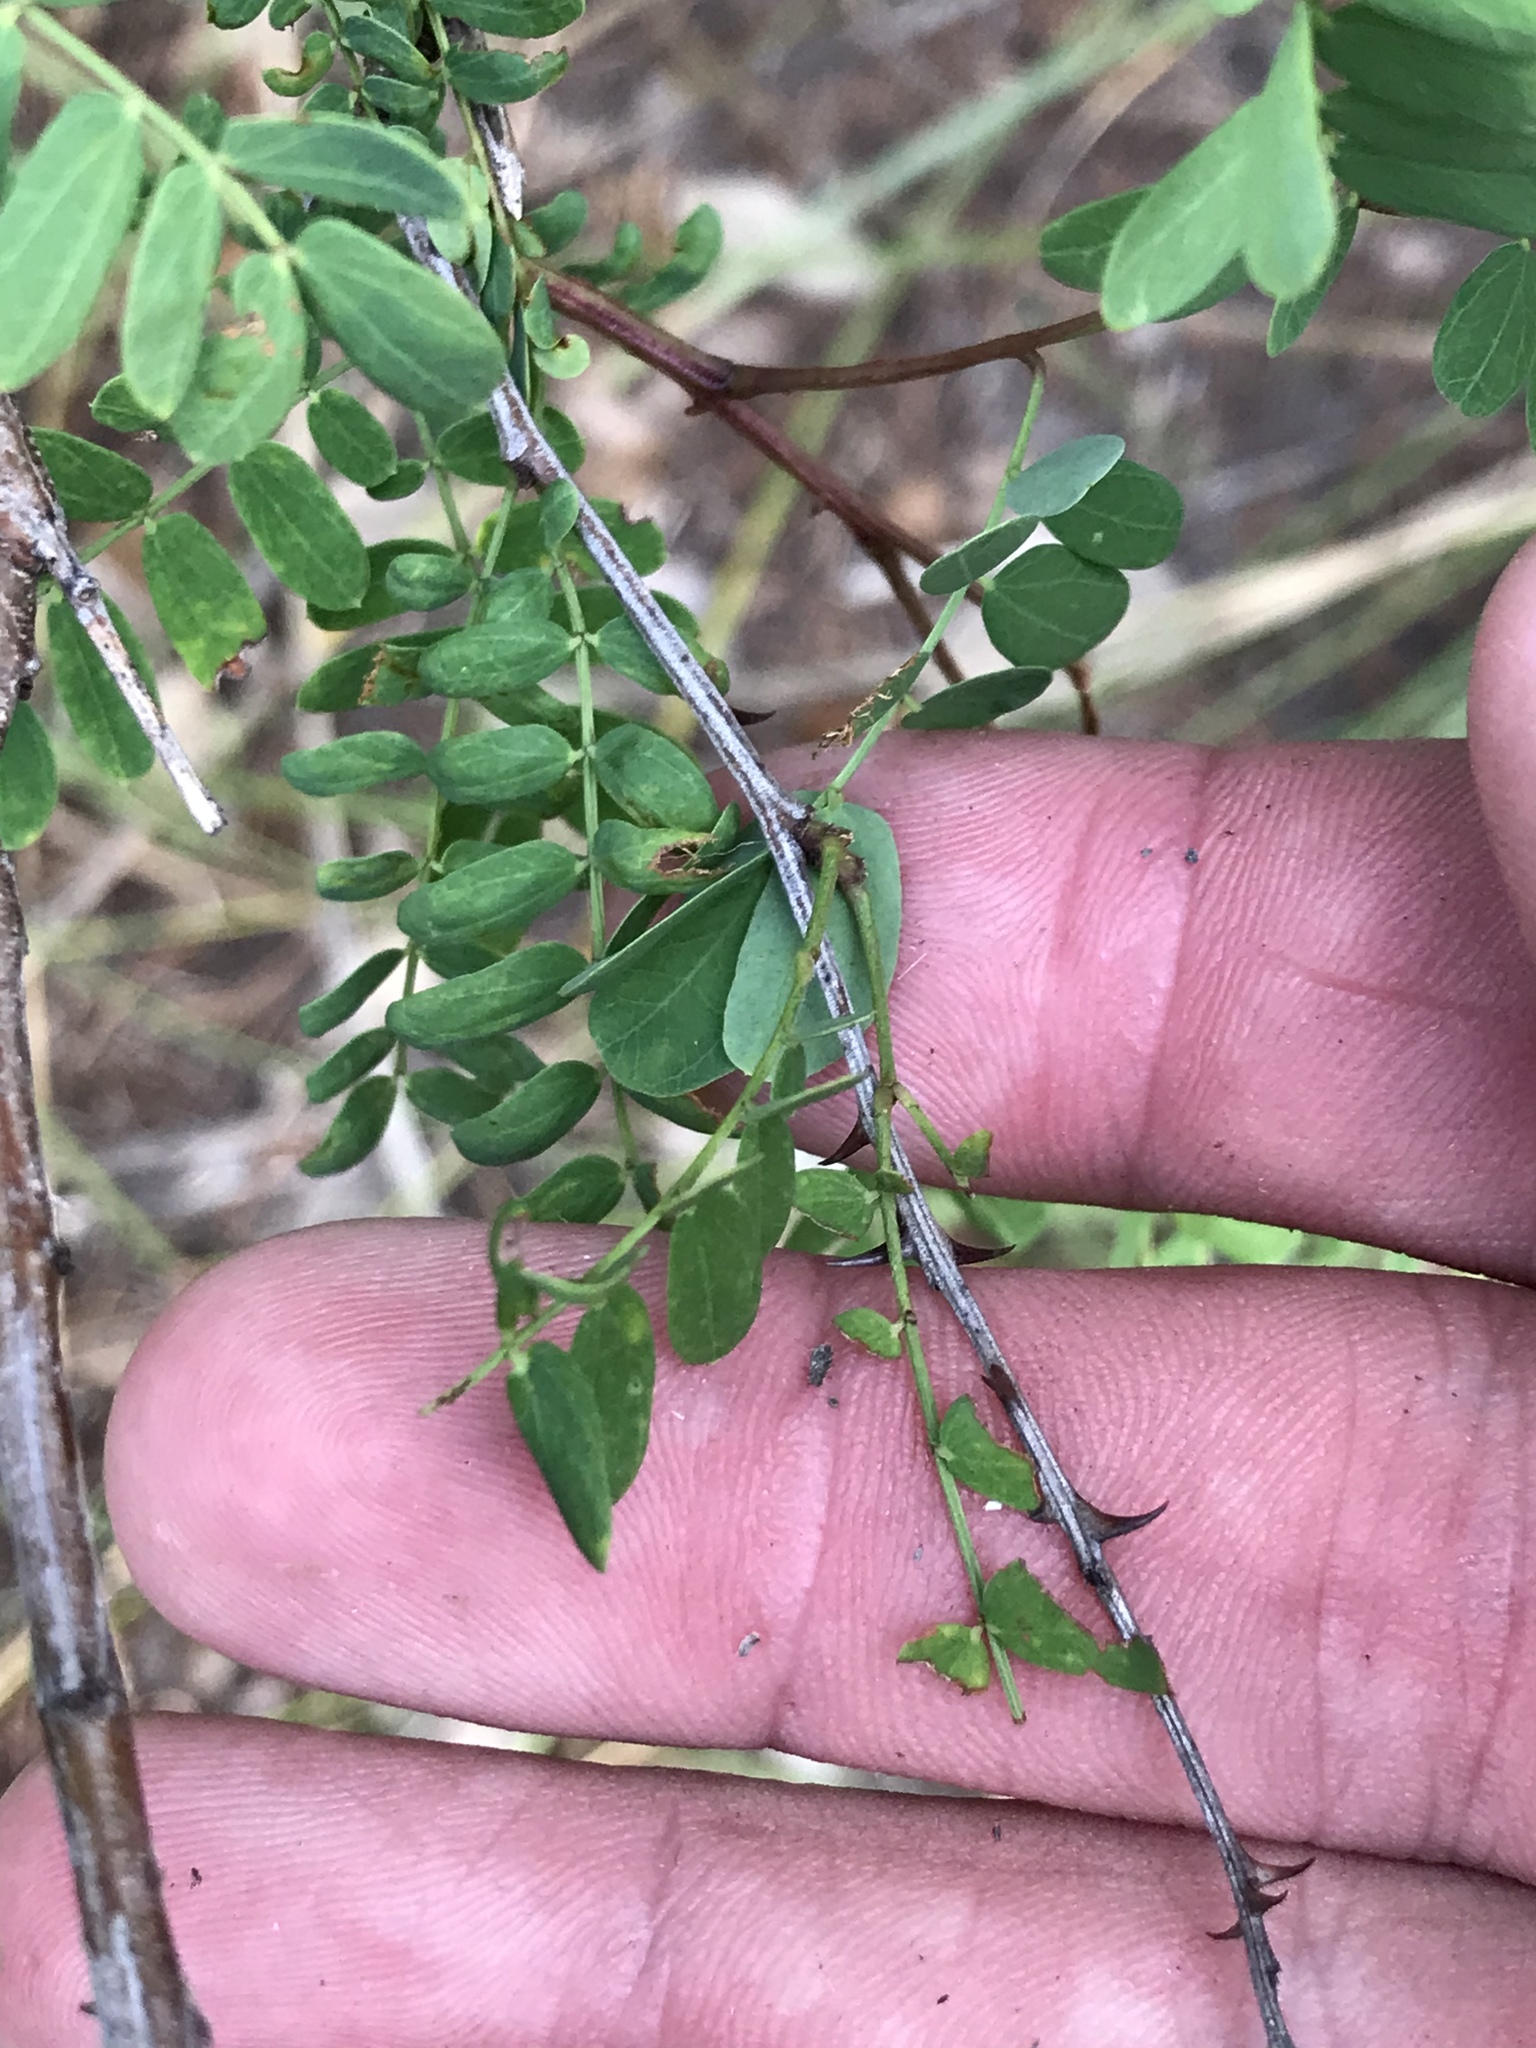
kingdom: Plantae
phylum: Tracheophyta
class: Magnoliopsida
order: Fabales
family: Fabaceae
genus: Senegalia
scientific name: Senegalia roemeriana
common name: Roemer's acacia
